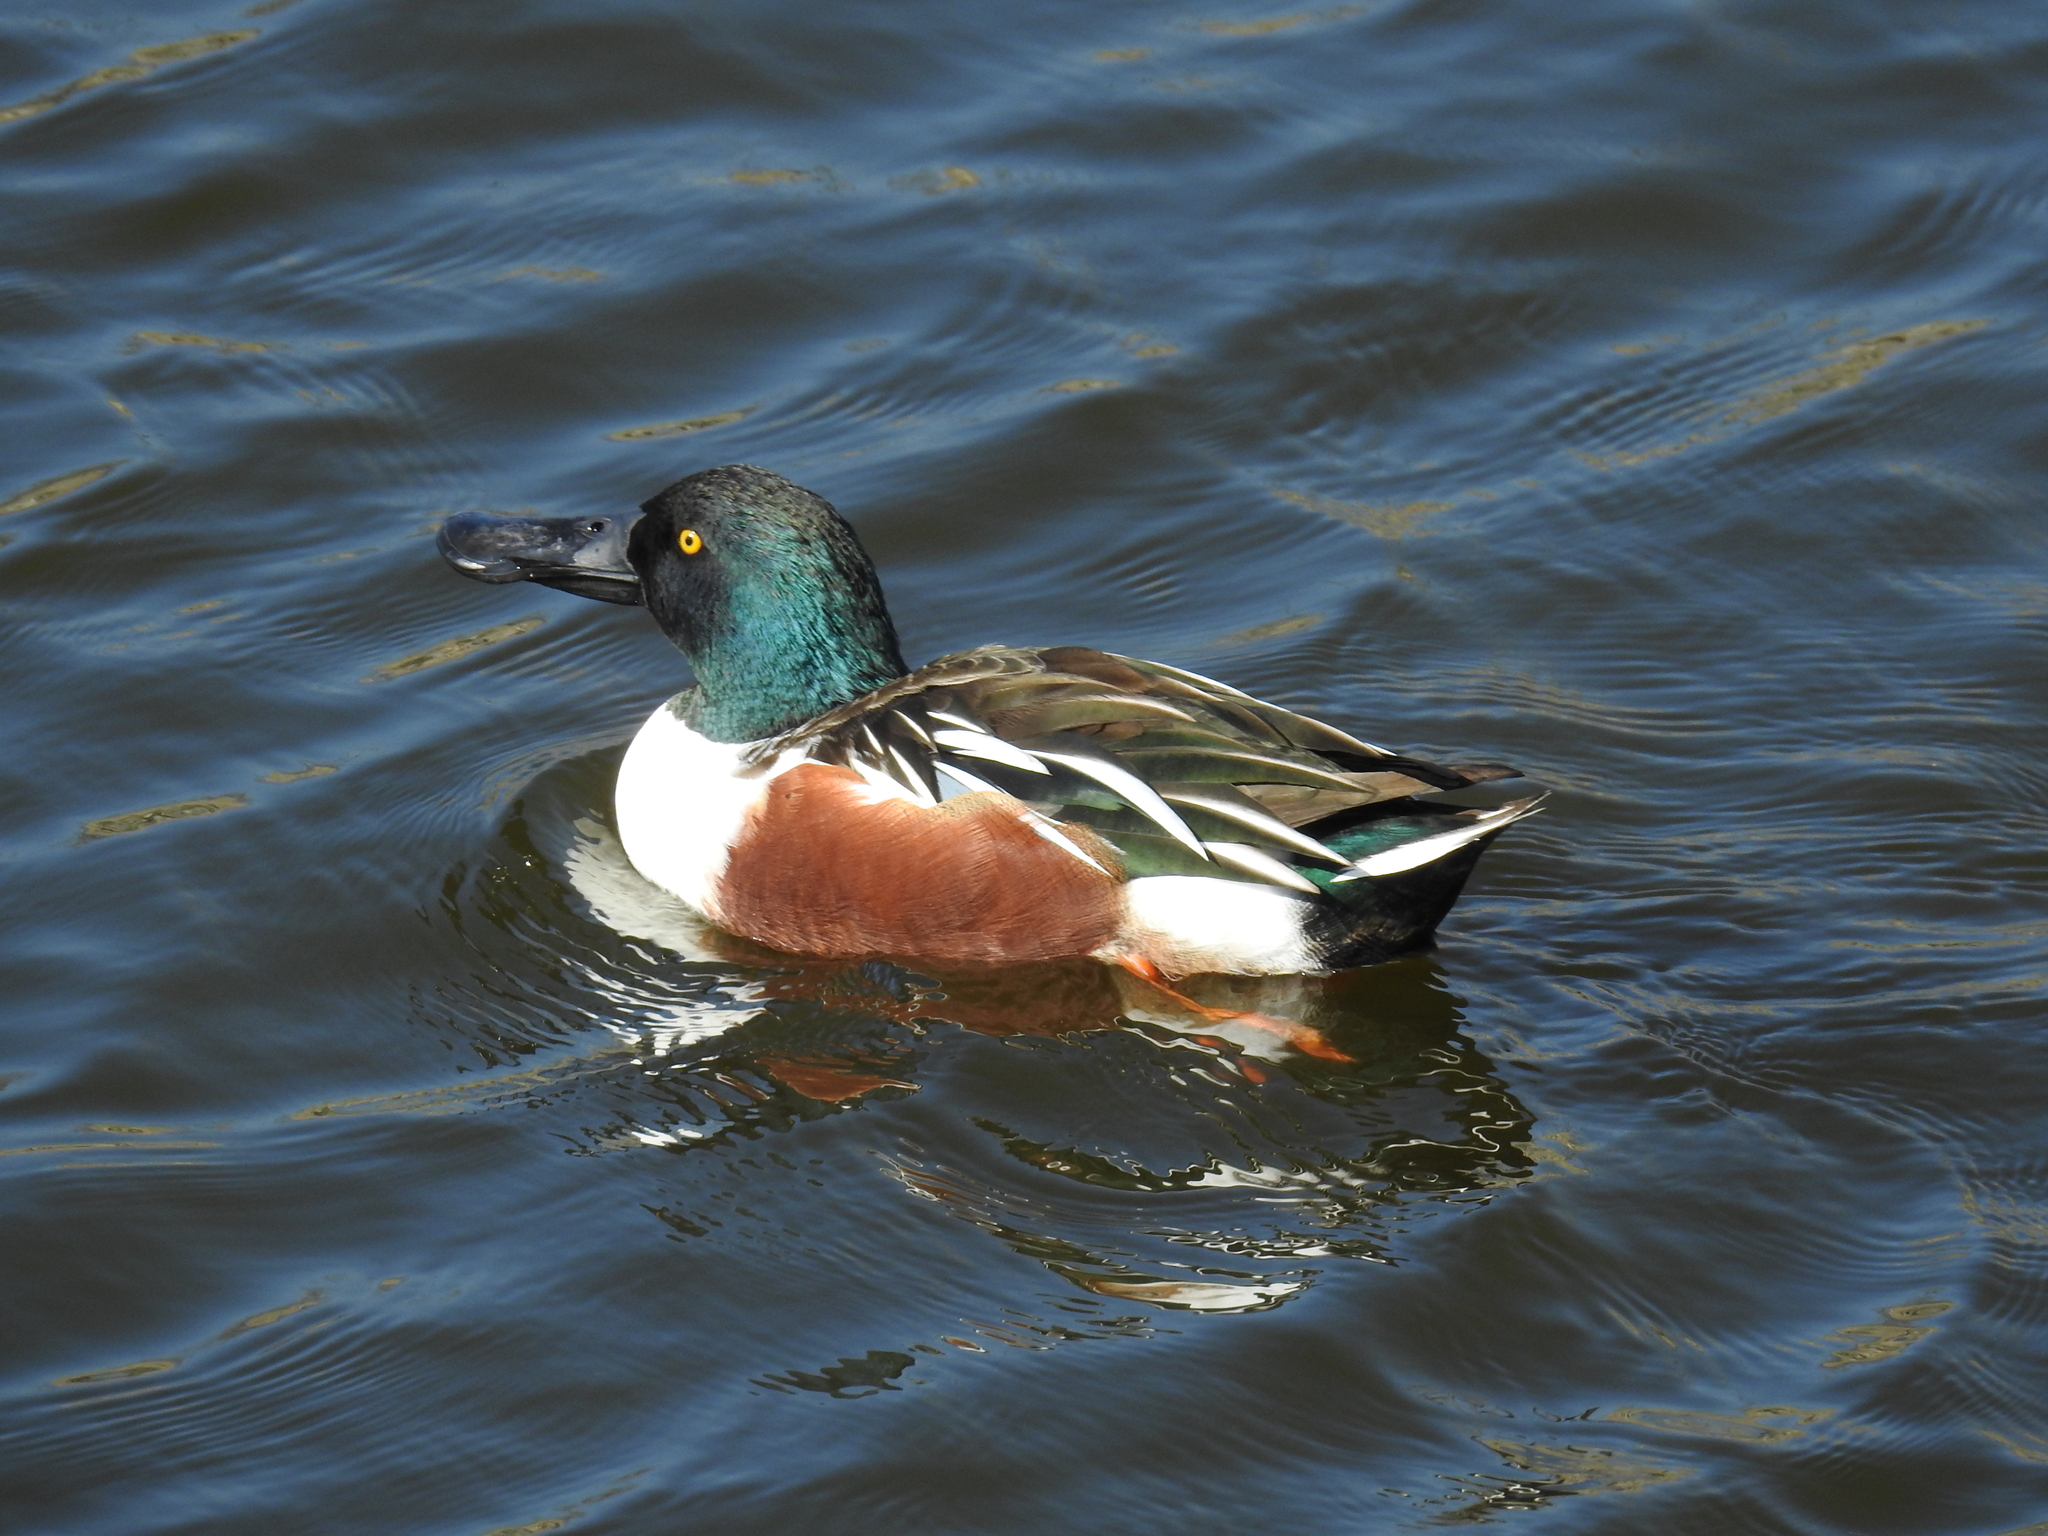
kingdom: Animalia
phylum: Chordata
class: Aves
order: Anseriformes
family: Anatidae
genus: Spatula
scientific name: Spatula clypeata
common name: Northern shoveler
